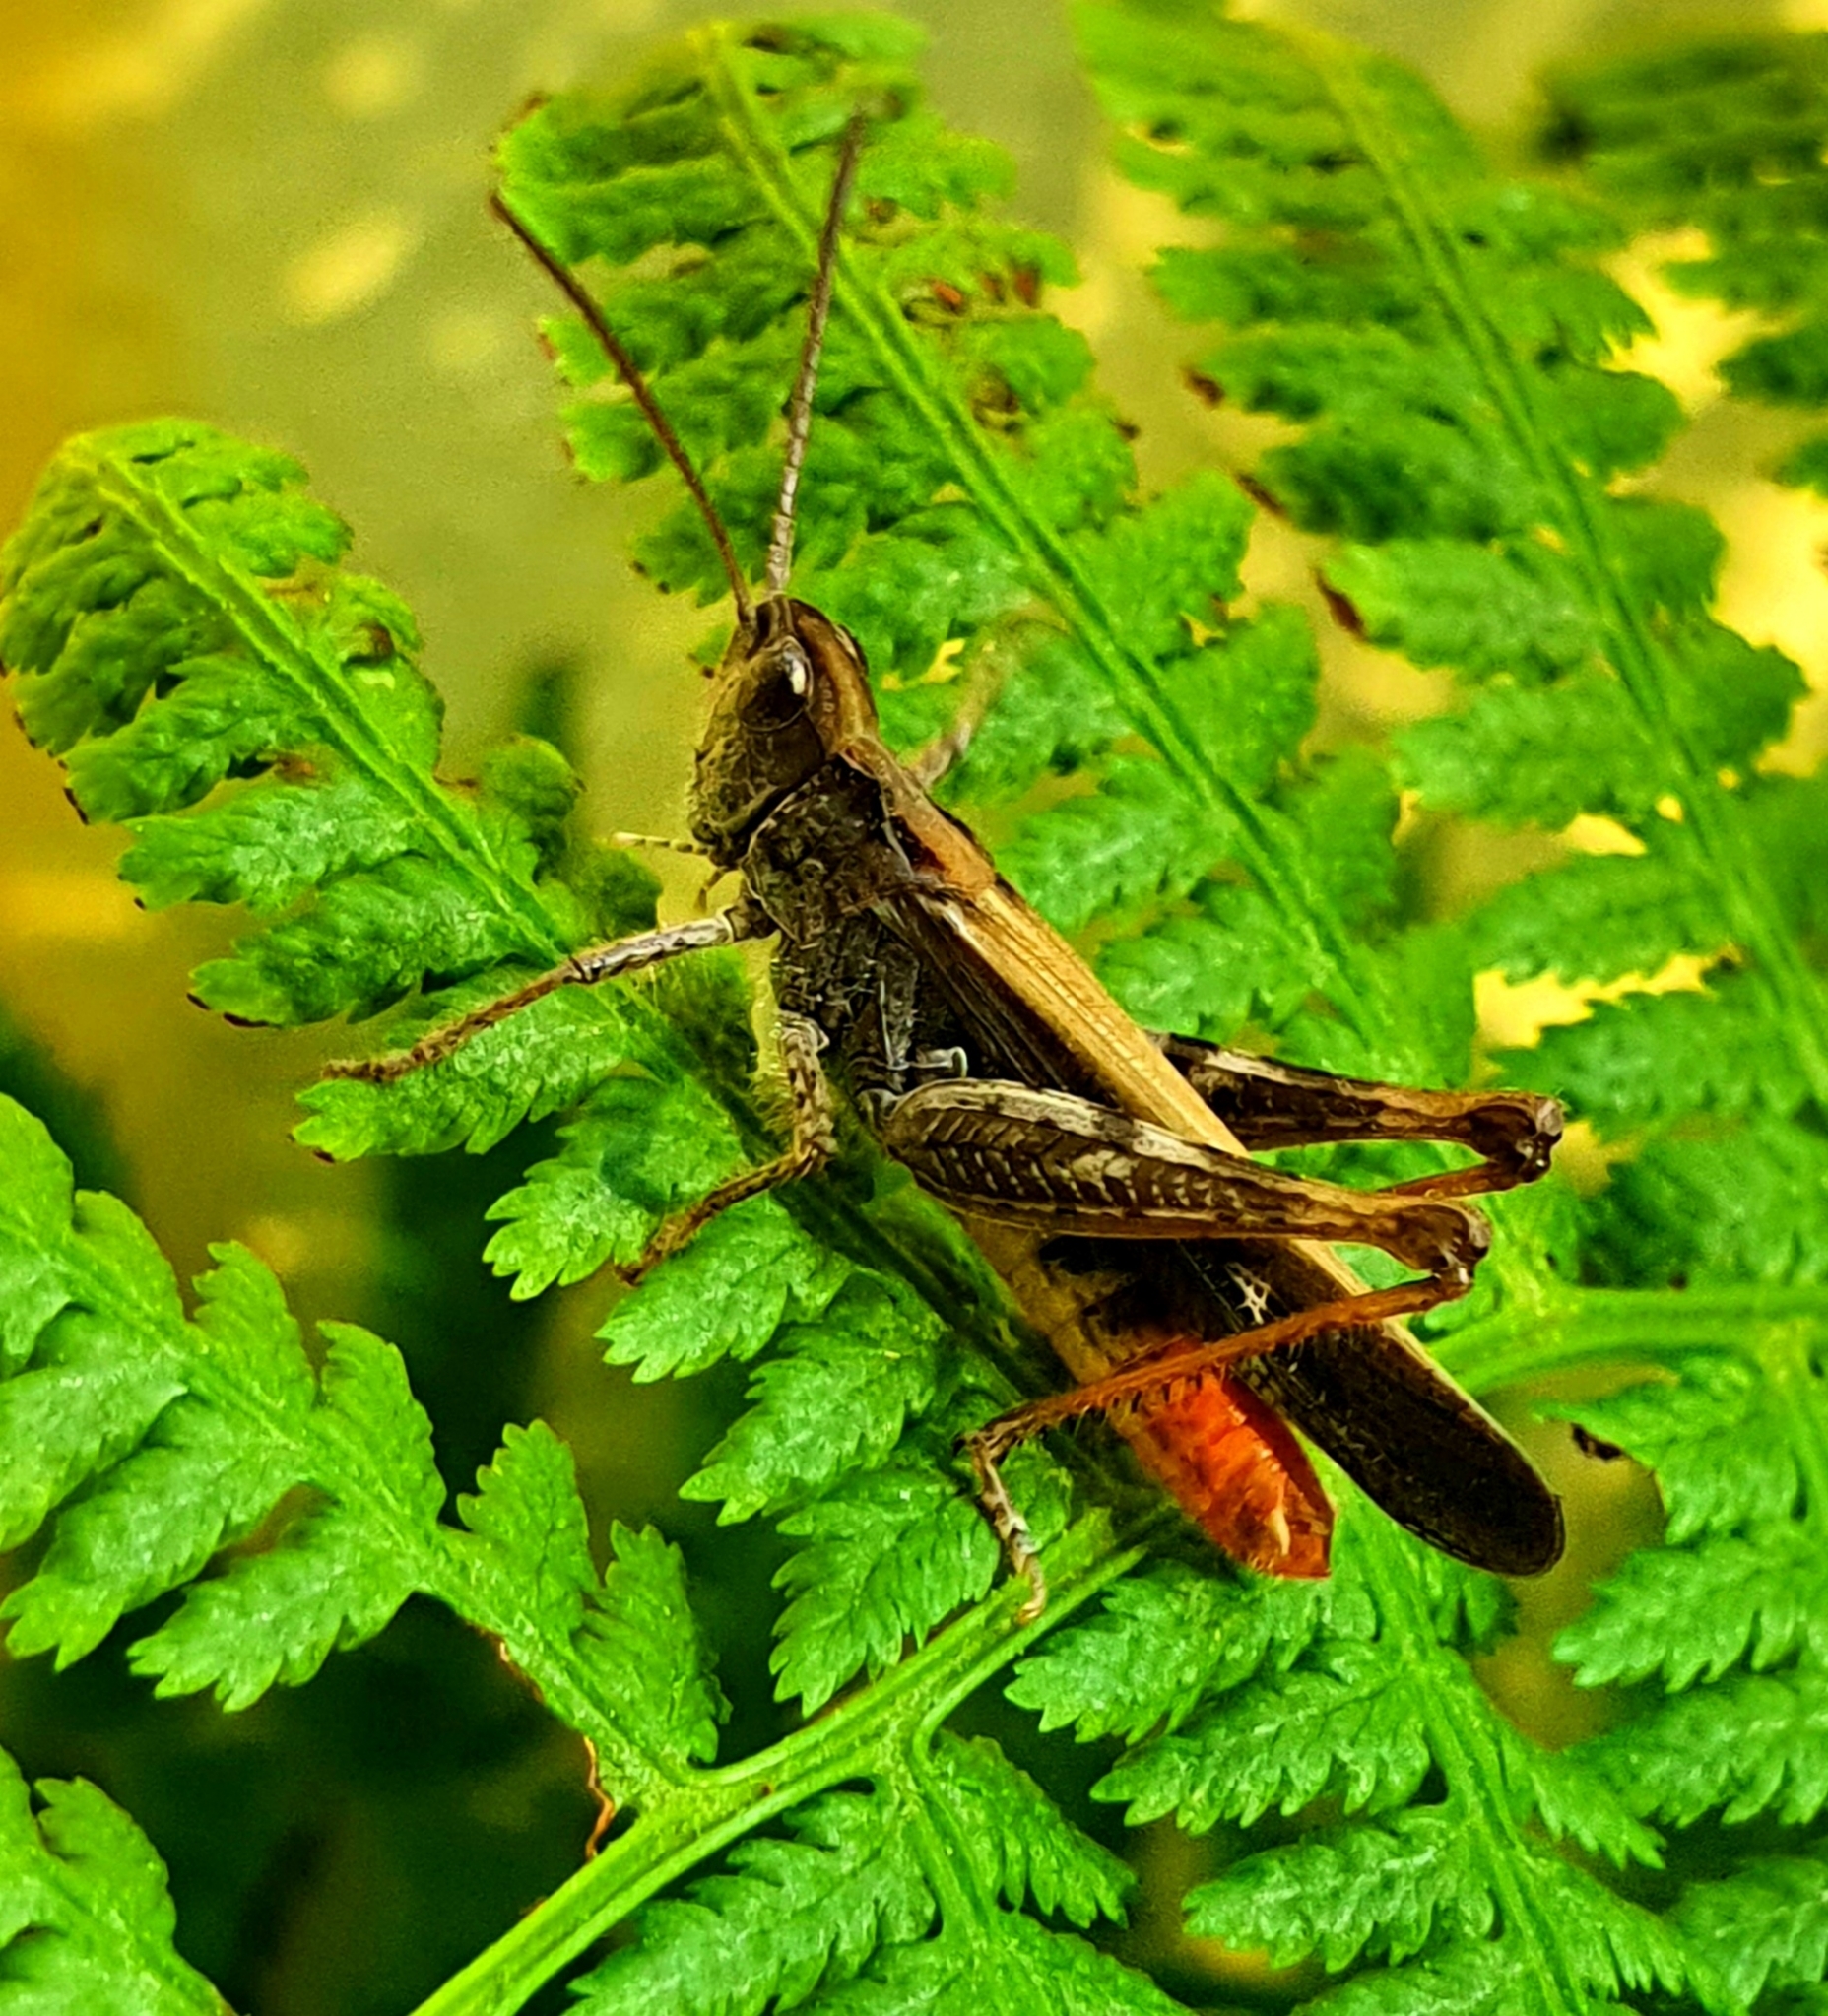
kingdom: Animalia
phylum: Arthropoda
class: Insecta
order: Orthoptera
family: Acrididae
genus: Chorthippus
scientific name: Chorthippus brunneus
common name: Field grasshopper
